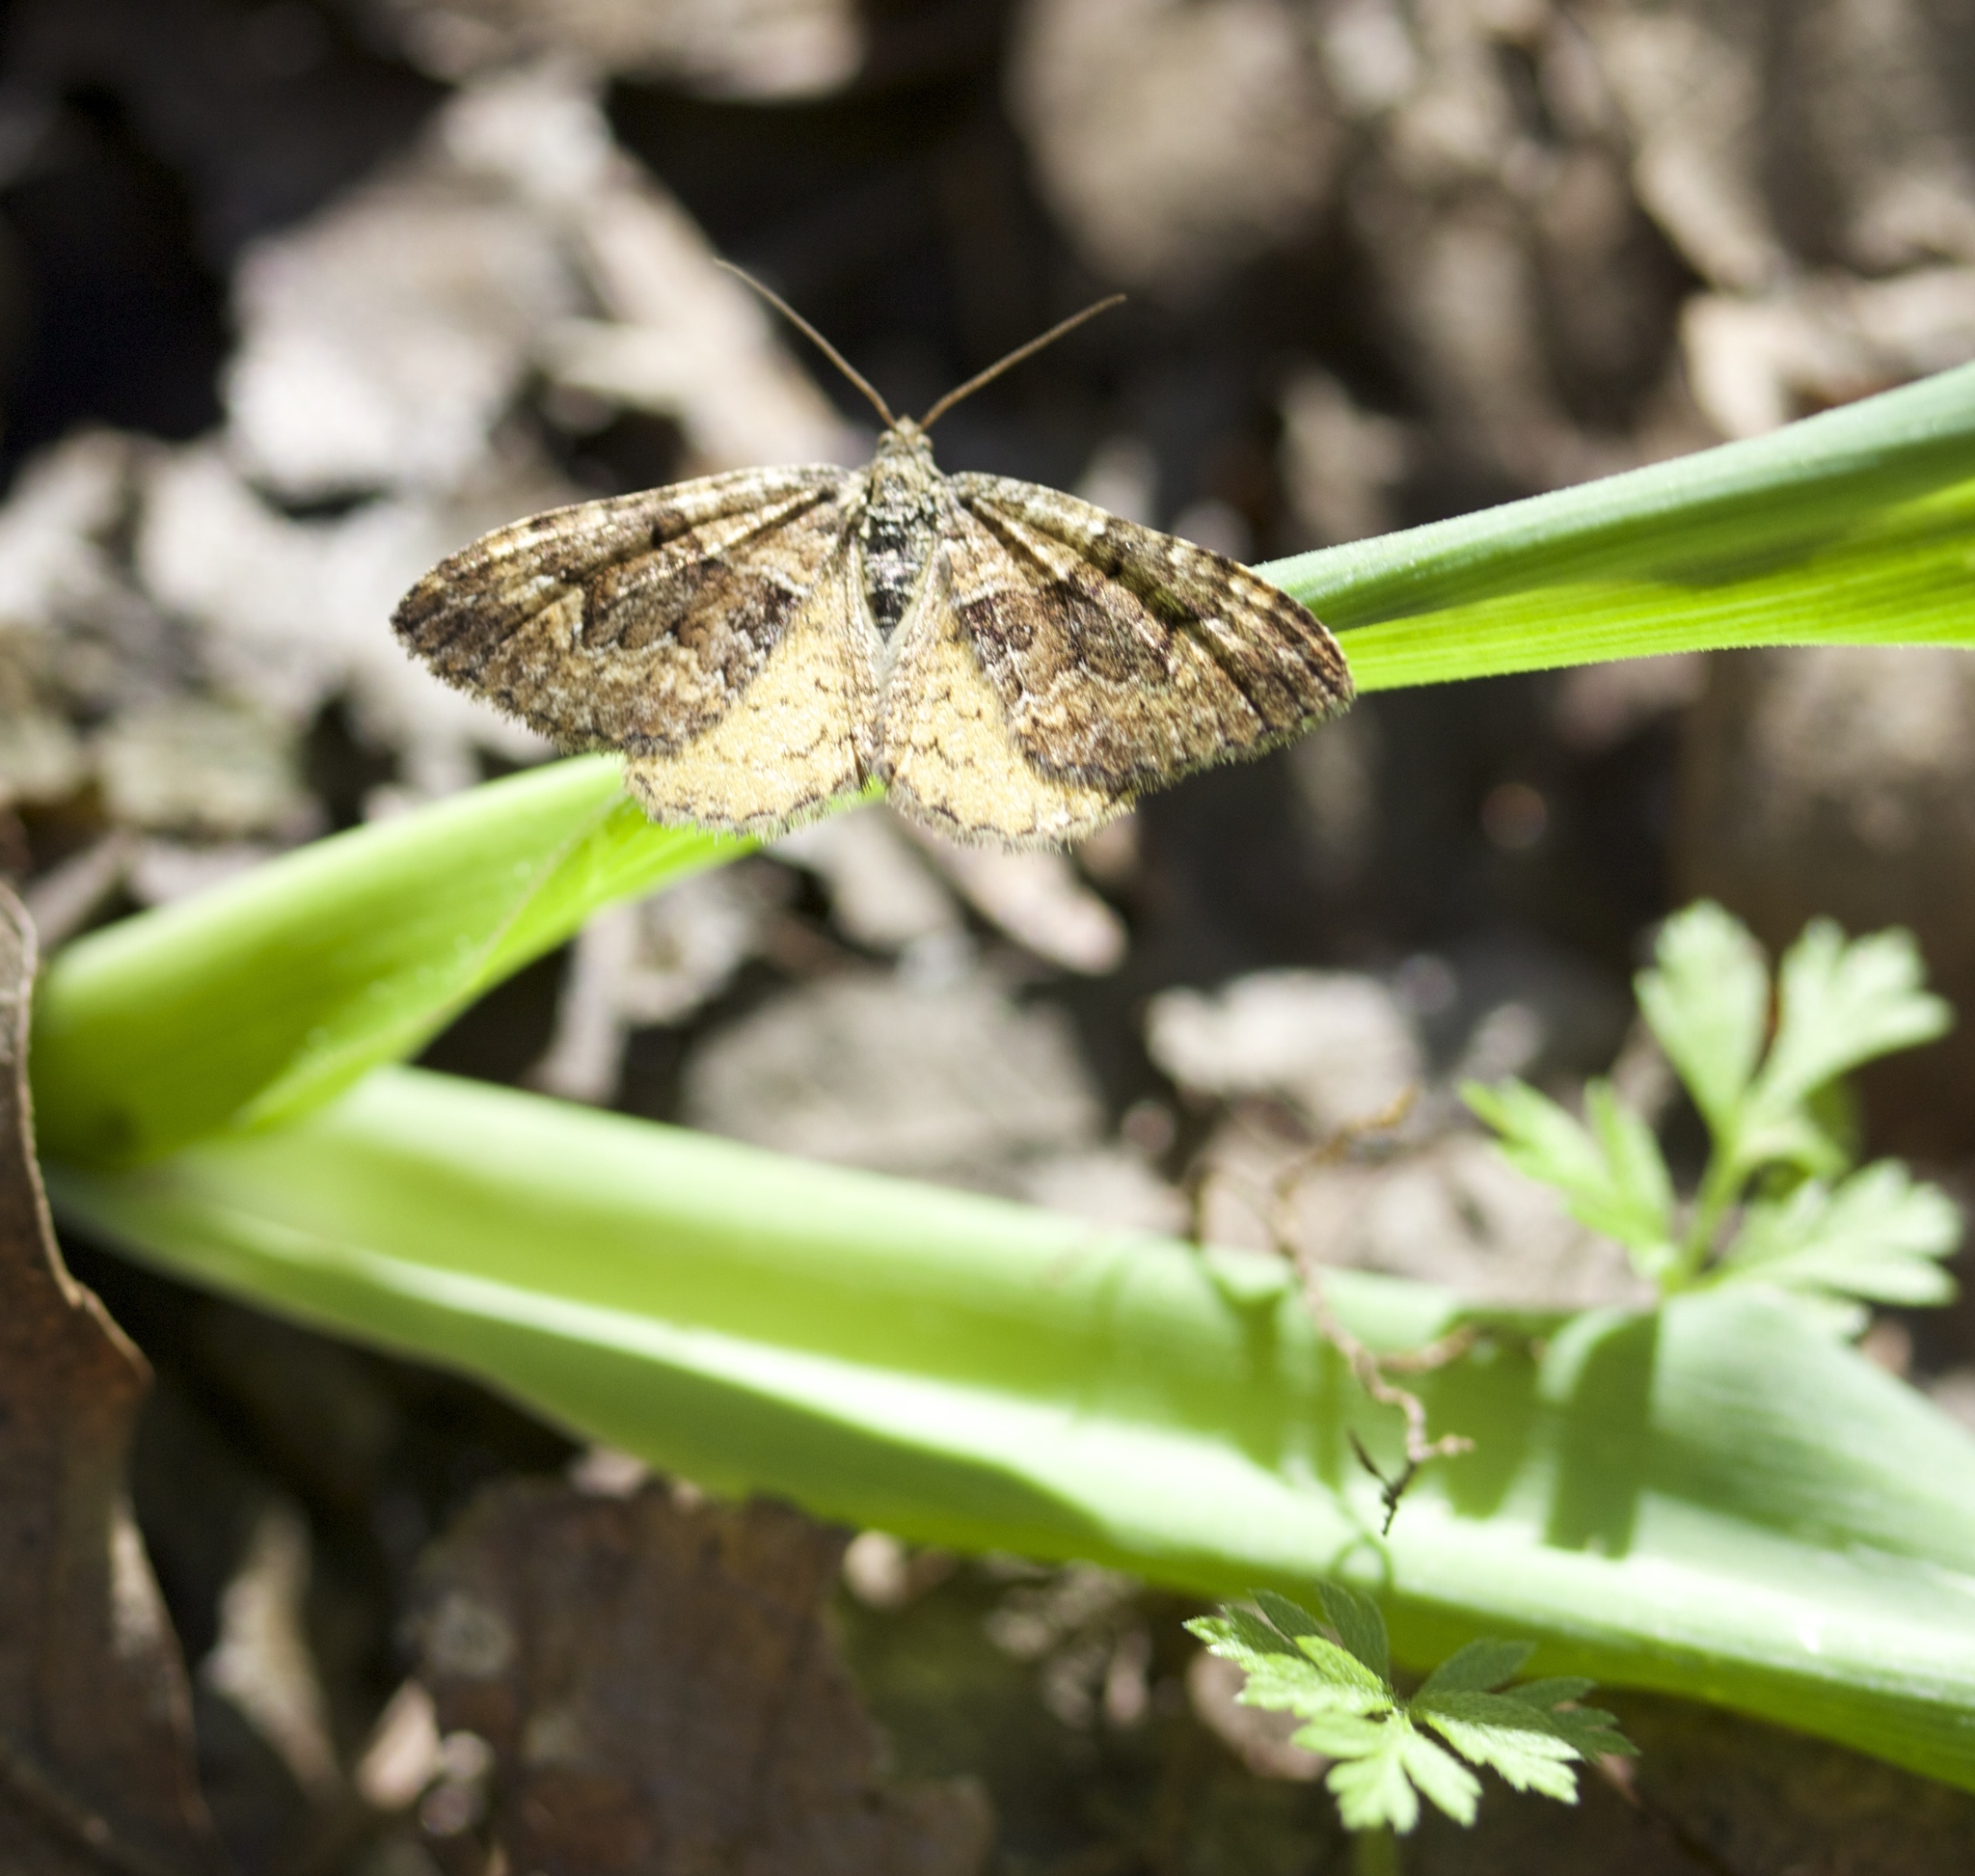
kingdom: Animalia
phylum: Arthropoda
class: Insecta
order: Lepidoptera
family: Geometridae
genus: Epirrhoe
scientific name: Epirrhoe plebeculata
